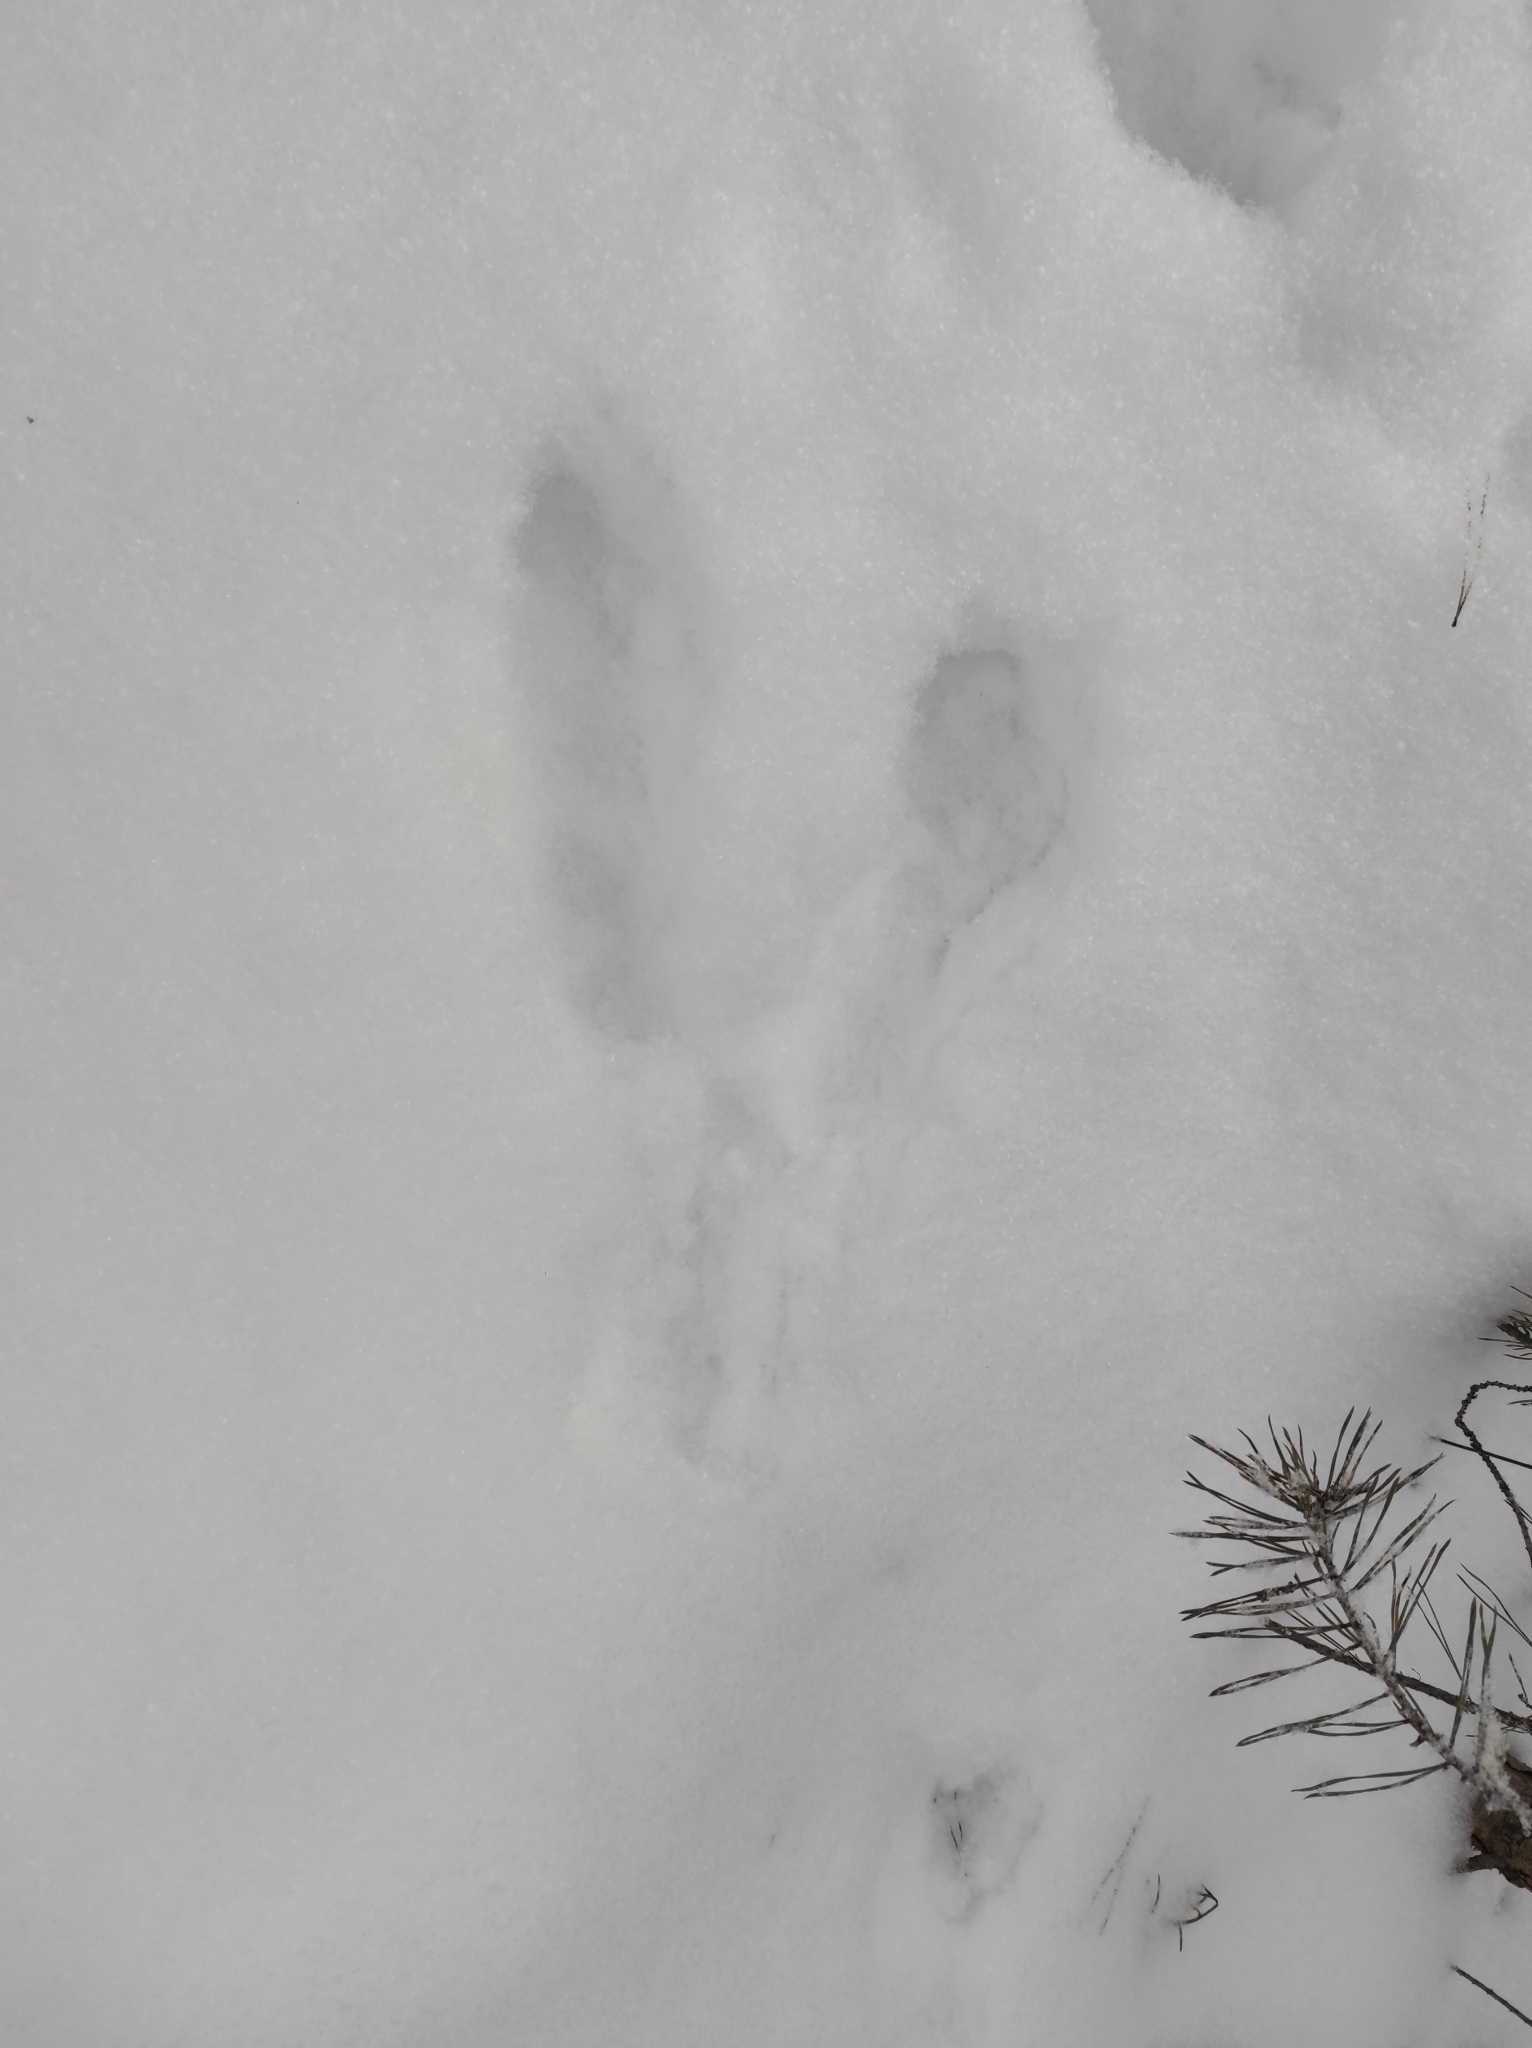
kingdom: Animalia
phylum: Chordata
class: Mammalia
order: Lagomorpha
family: Leporidae
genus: Lepus
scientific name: Lepus timidus
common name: Mountain hare
